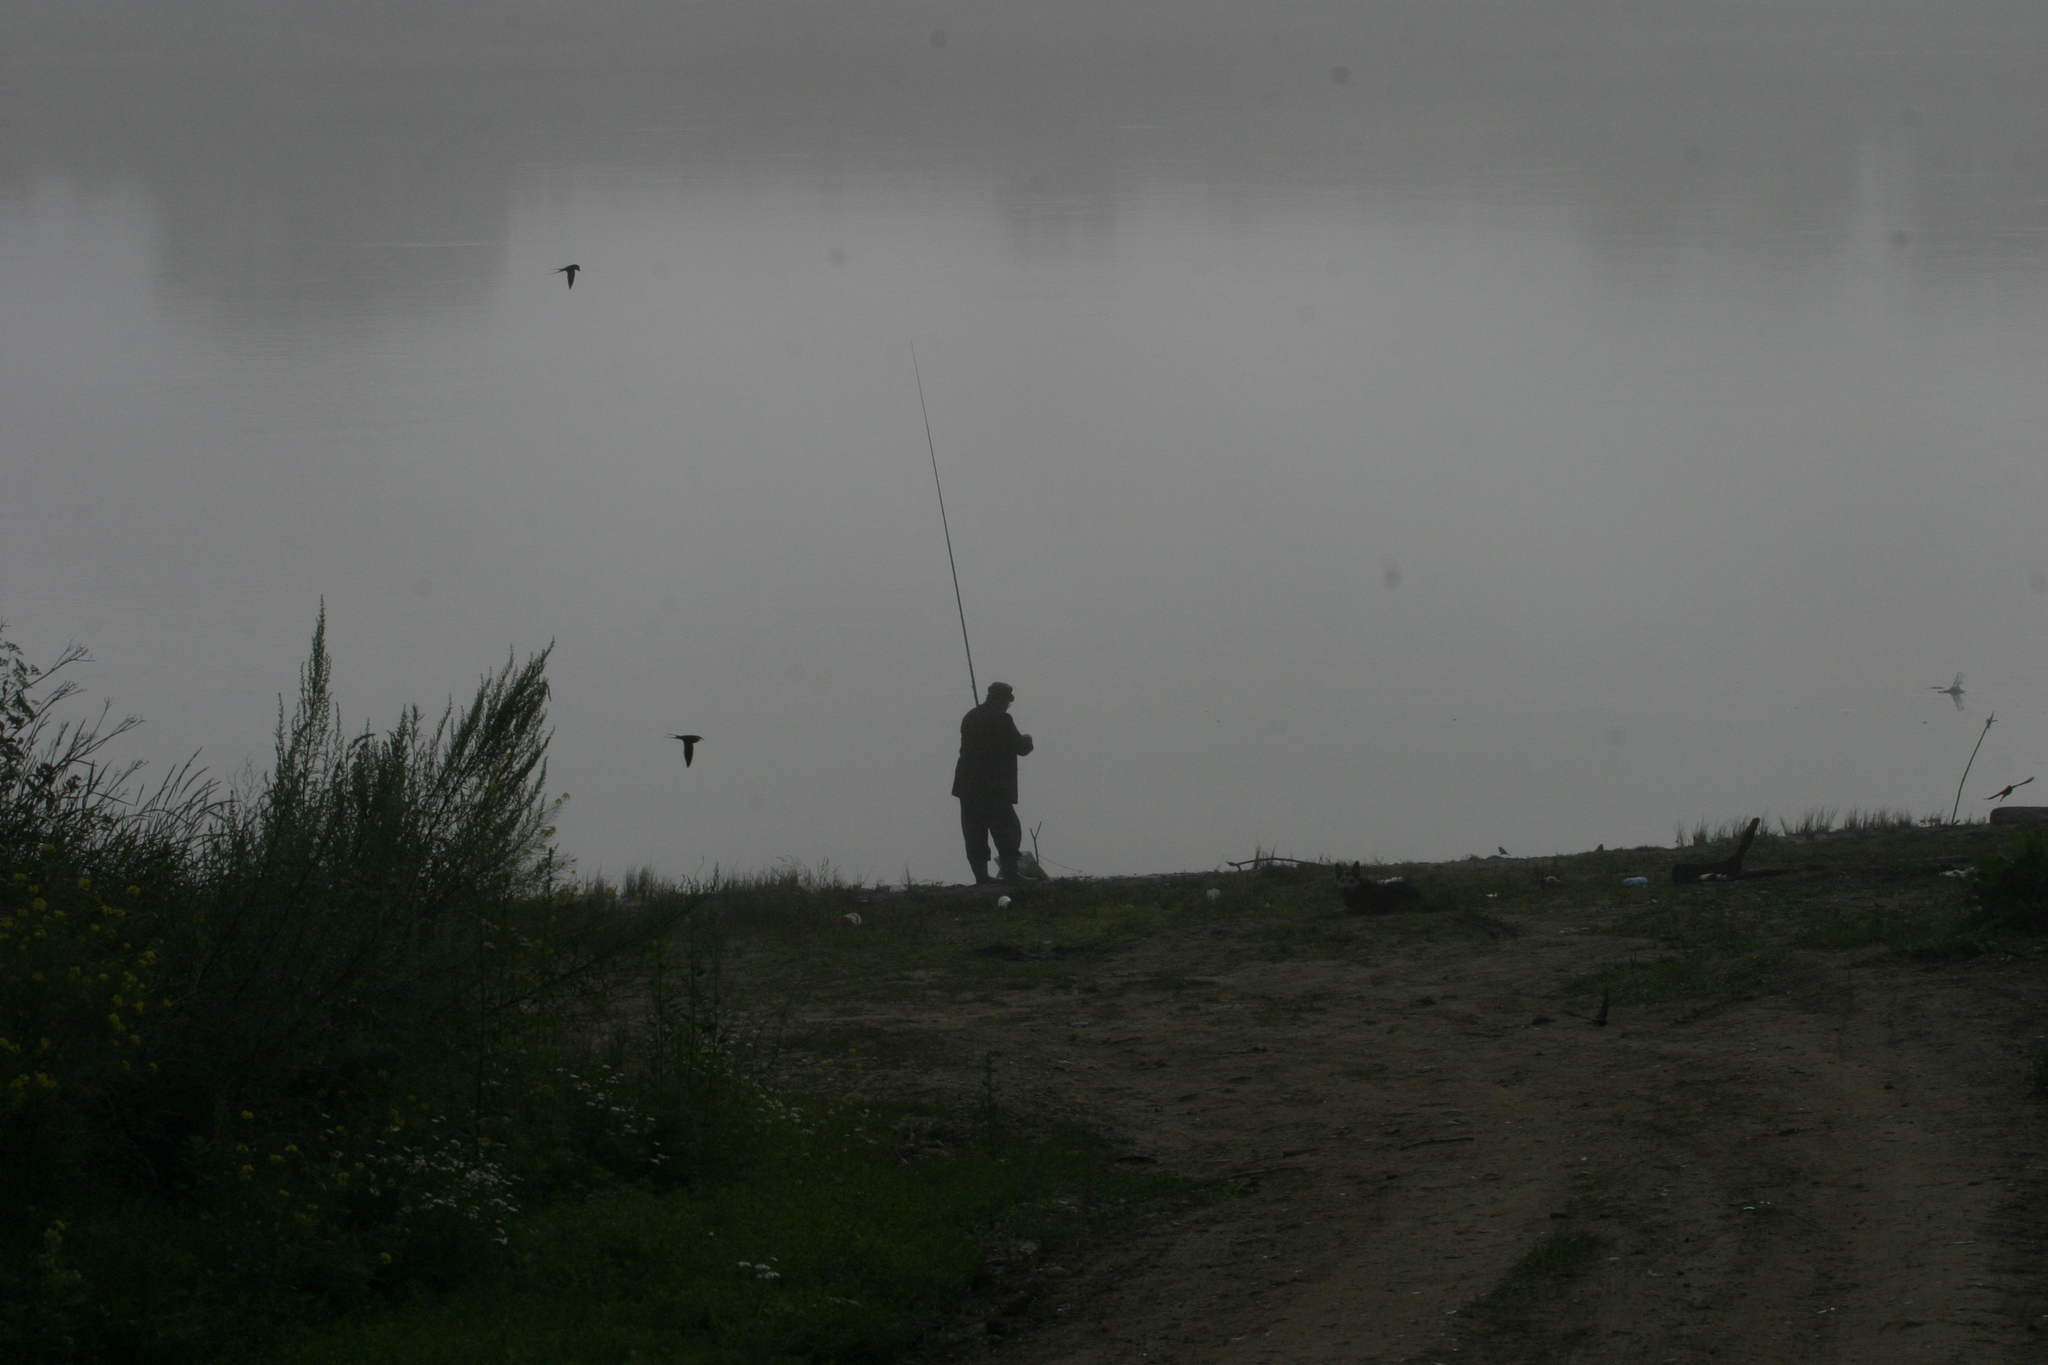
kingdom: Animalia
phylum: Chordata
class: Aves
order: Passeriformes
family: Hirundinidae
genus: Hirundo
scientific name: Hirundo rustica
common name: Barn swallow
